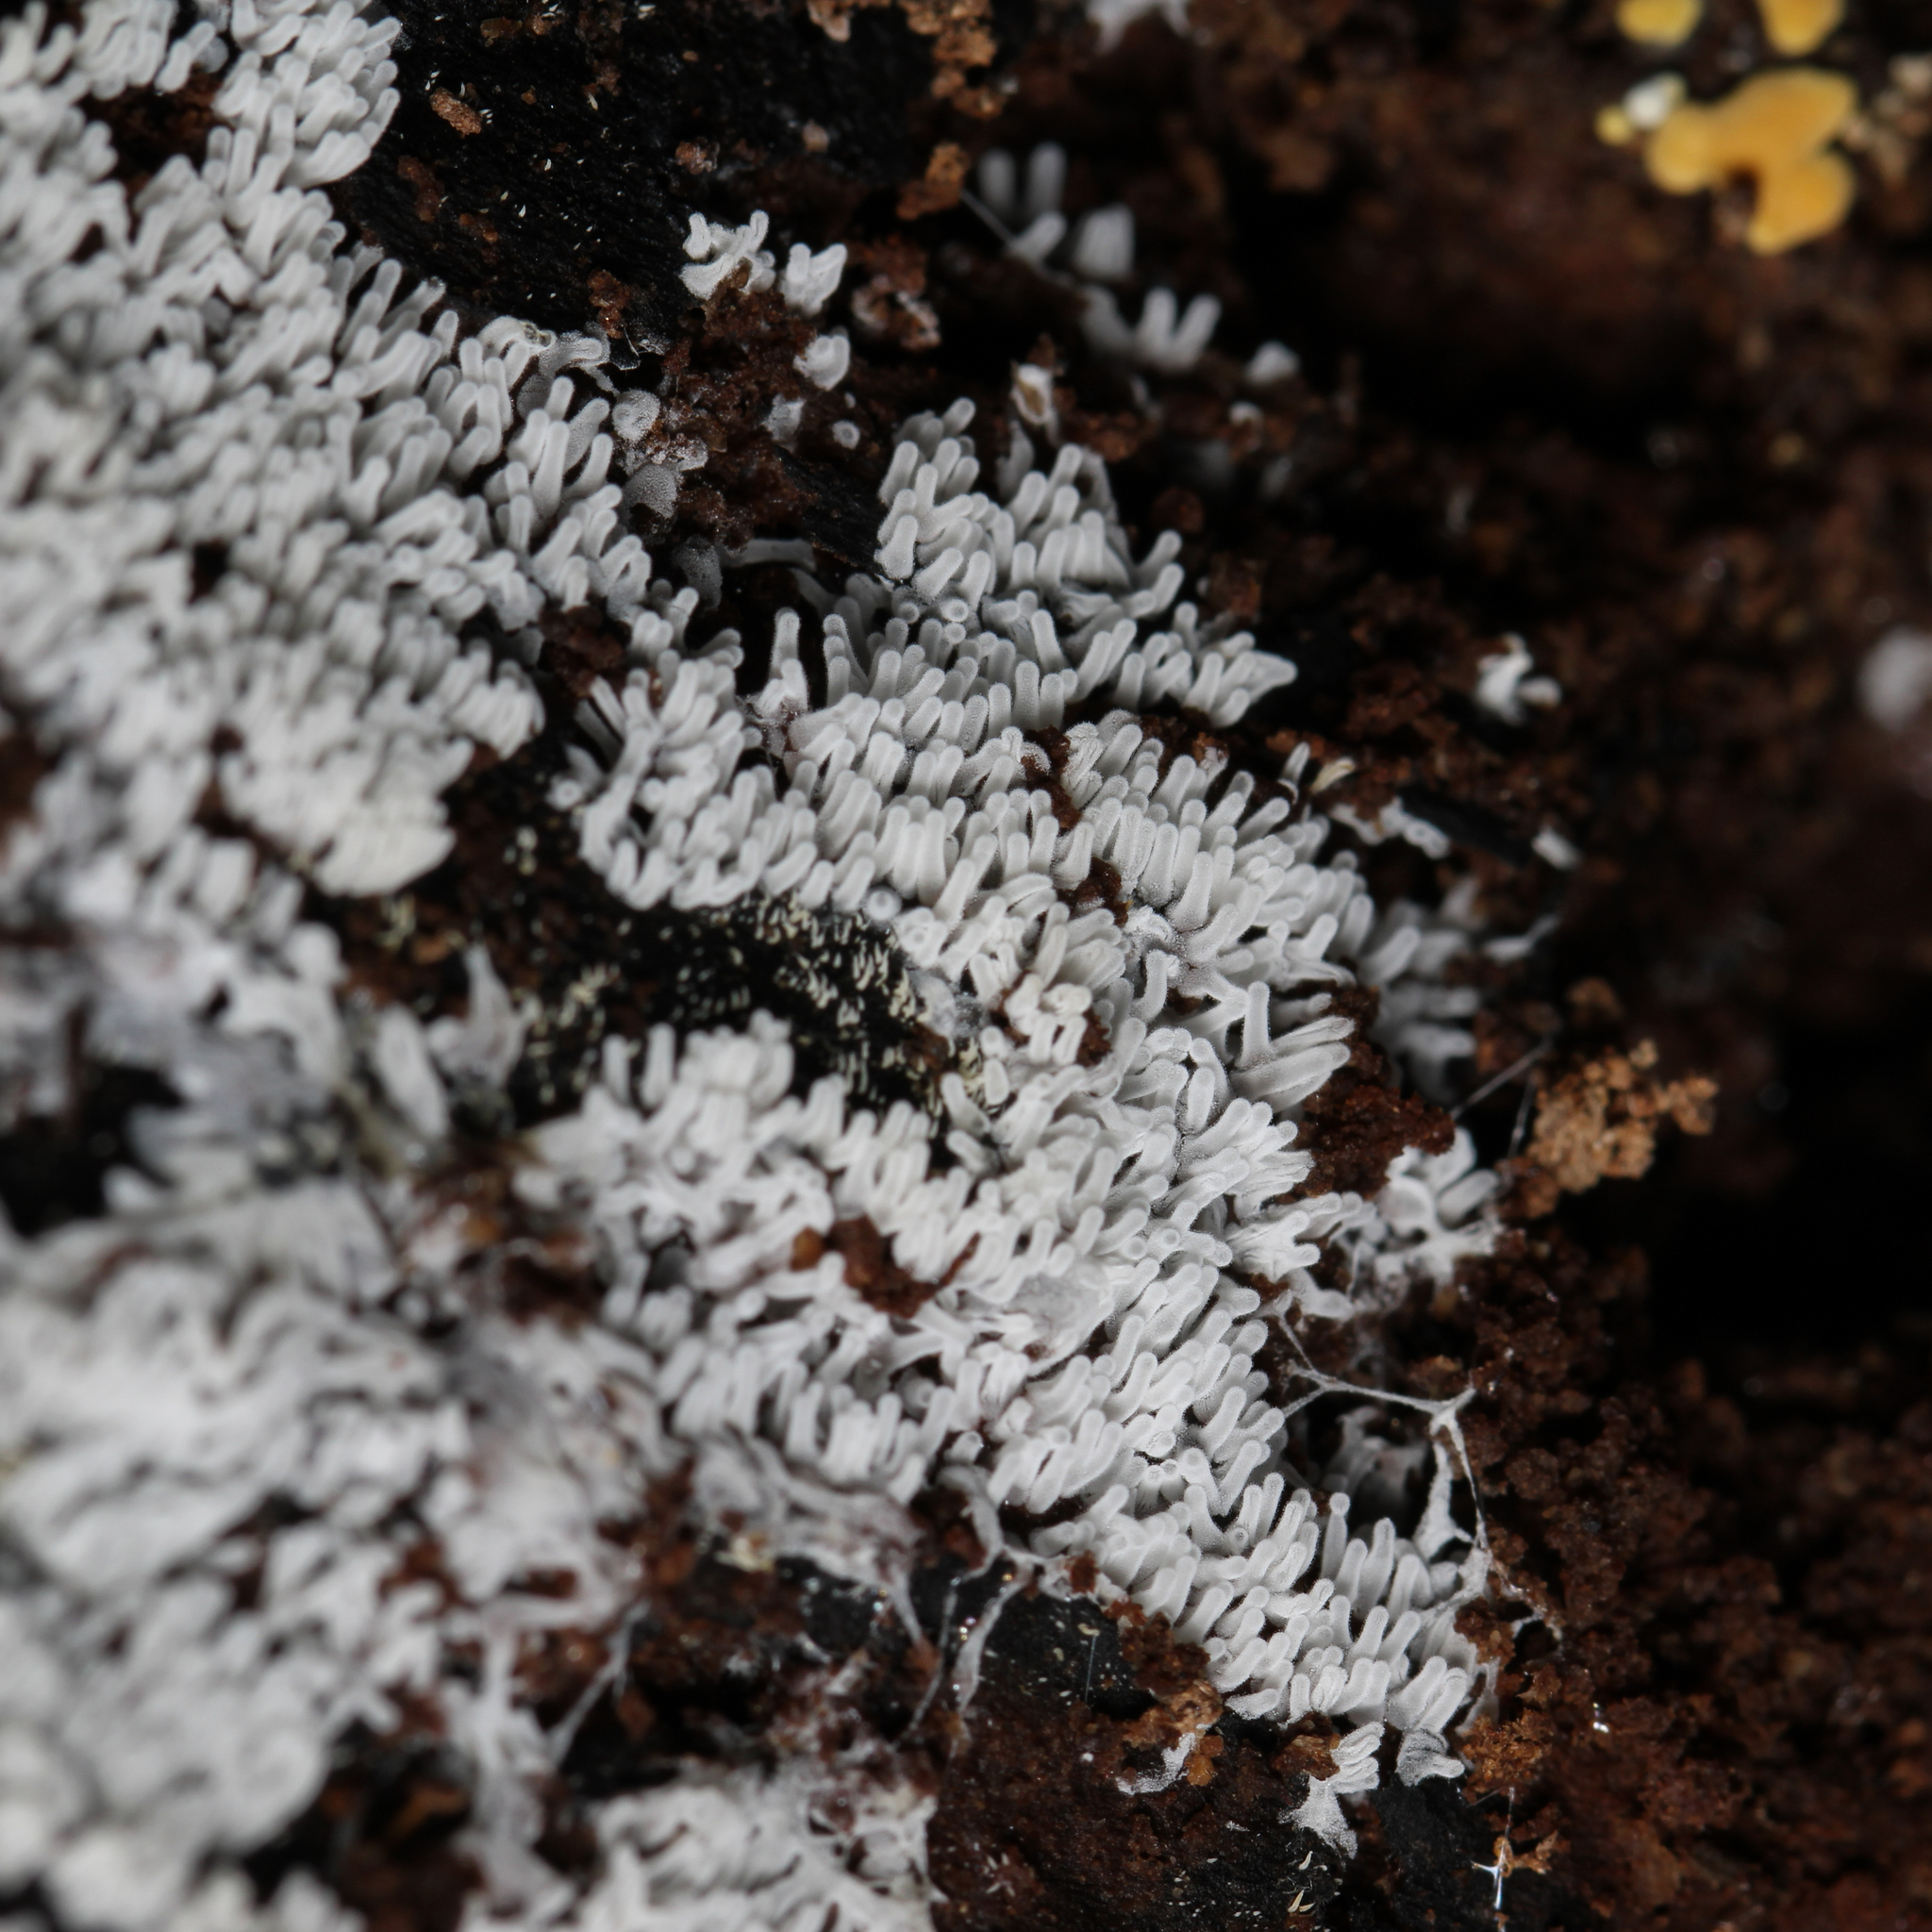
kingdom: Protozoa
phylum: Mycetozoa
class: Protosteliomycetes
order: Ceratiomyxales
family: Ceratiomyxaceae
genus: Ceratiomyxa
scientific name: Ceratiomyxa fruticulosa
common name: Honeycomb coral slime mold
